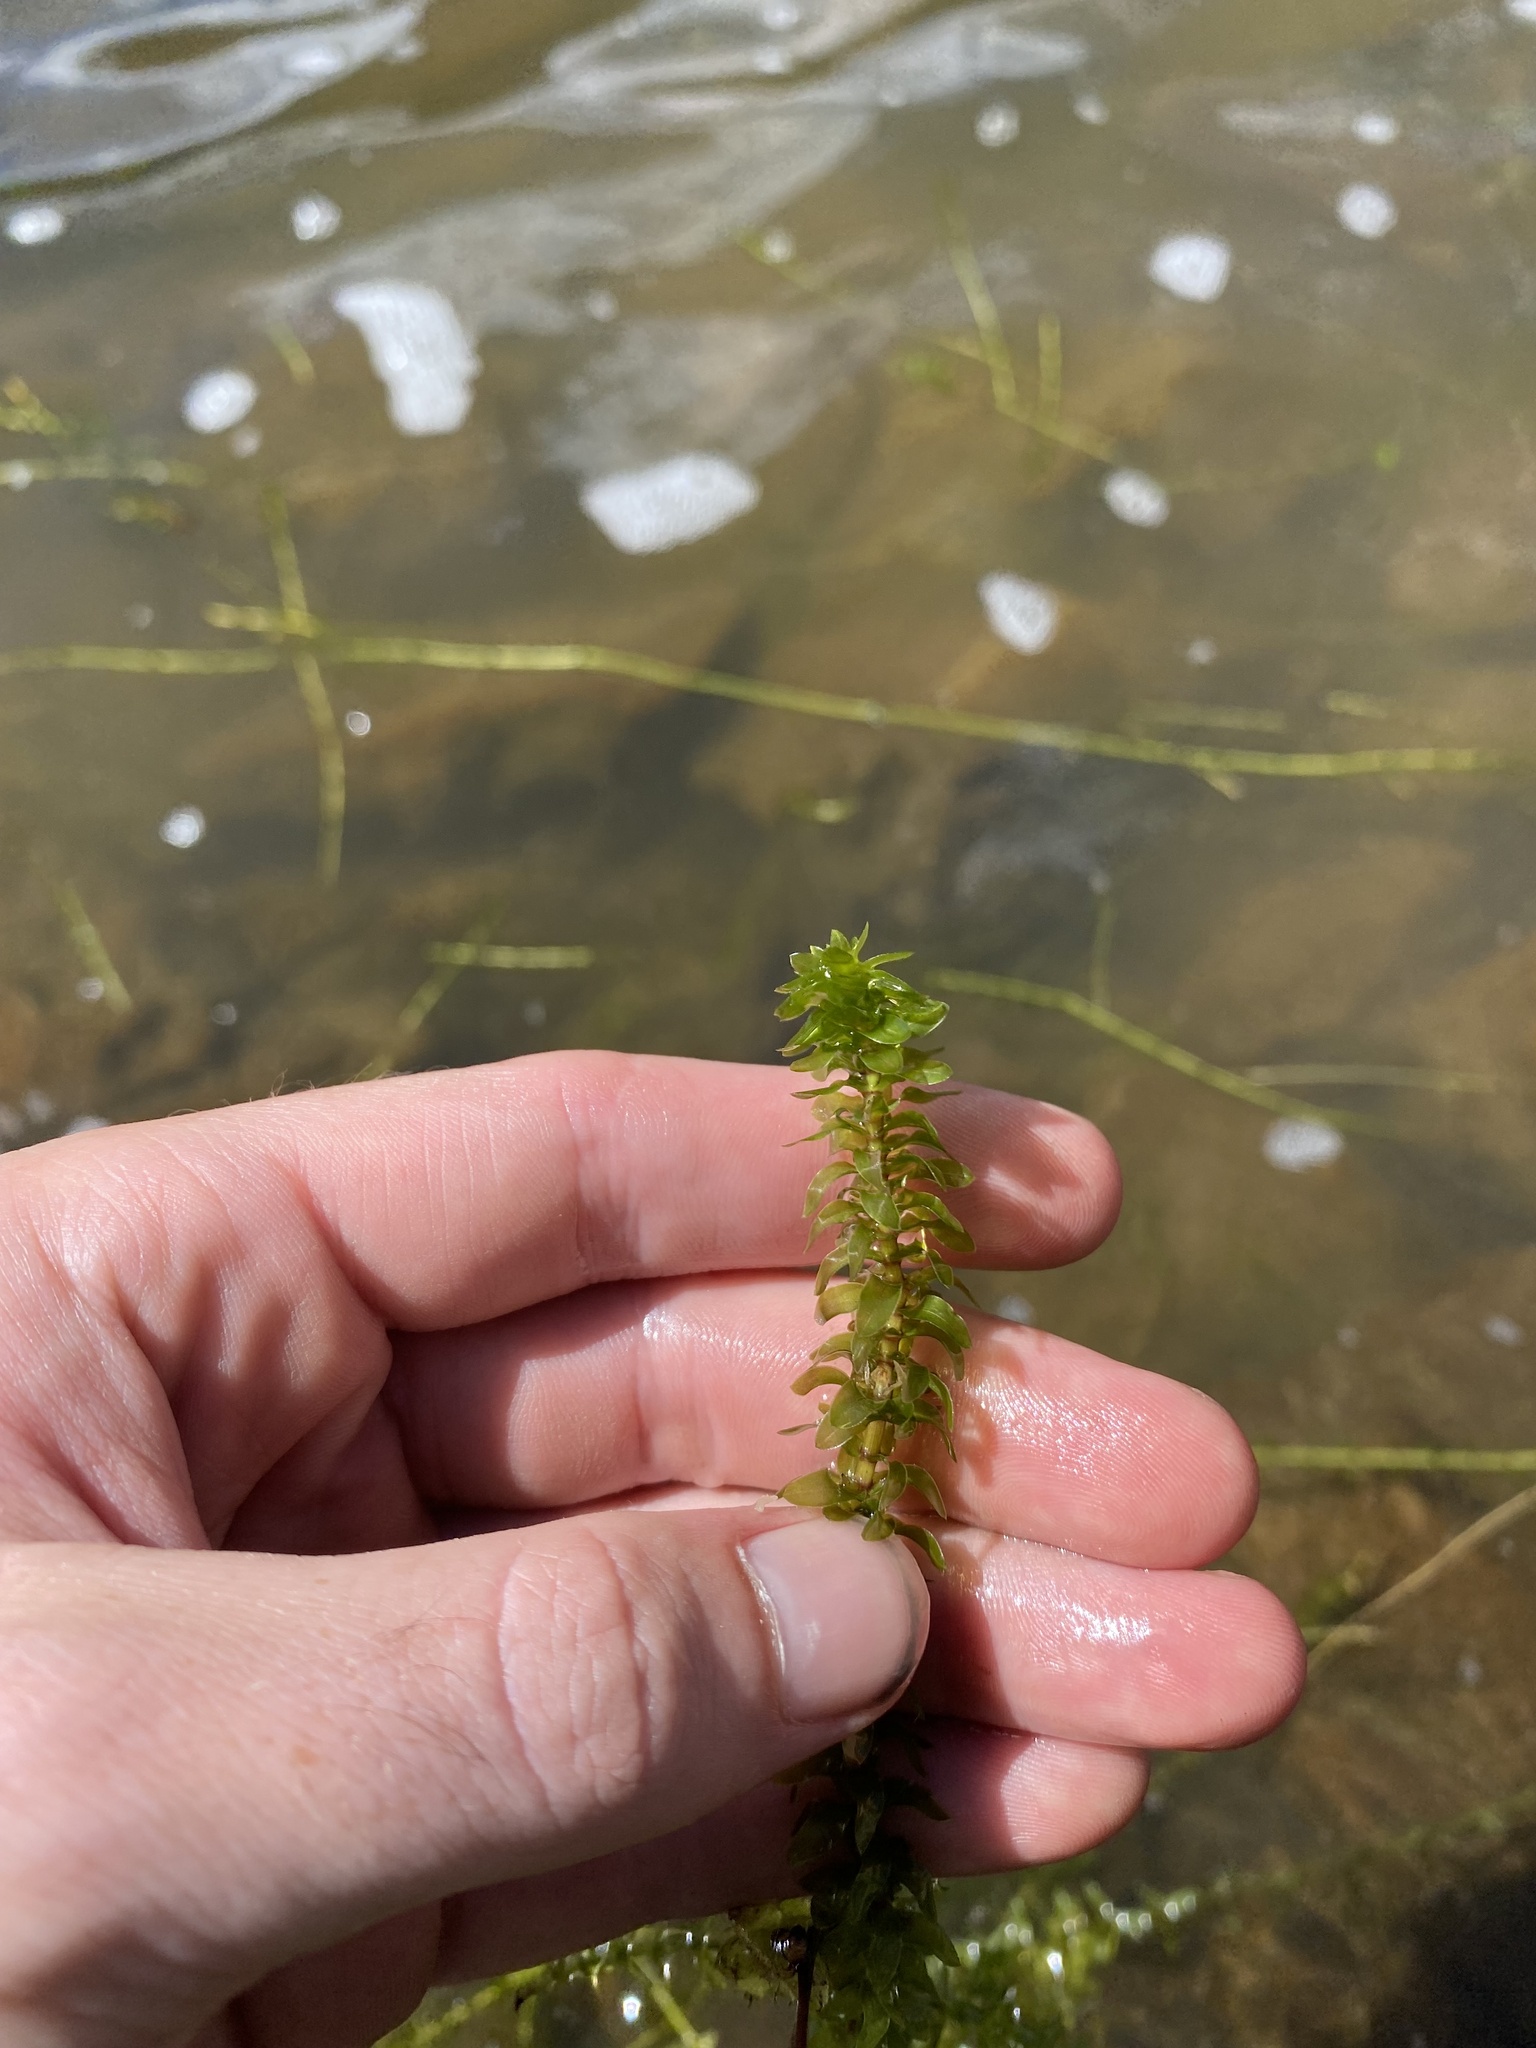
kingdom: Plantae
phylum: Tracheophyta
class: Liliopsida
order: Alismatales
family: Hydrocharitaceae
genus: Elodea
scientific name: Elodea canadensis
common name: Canadian waterweed
